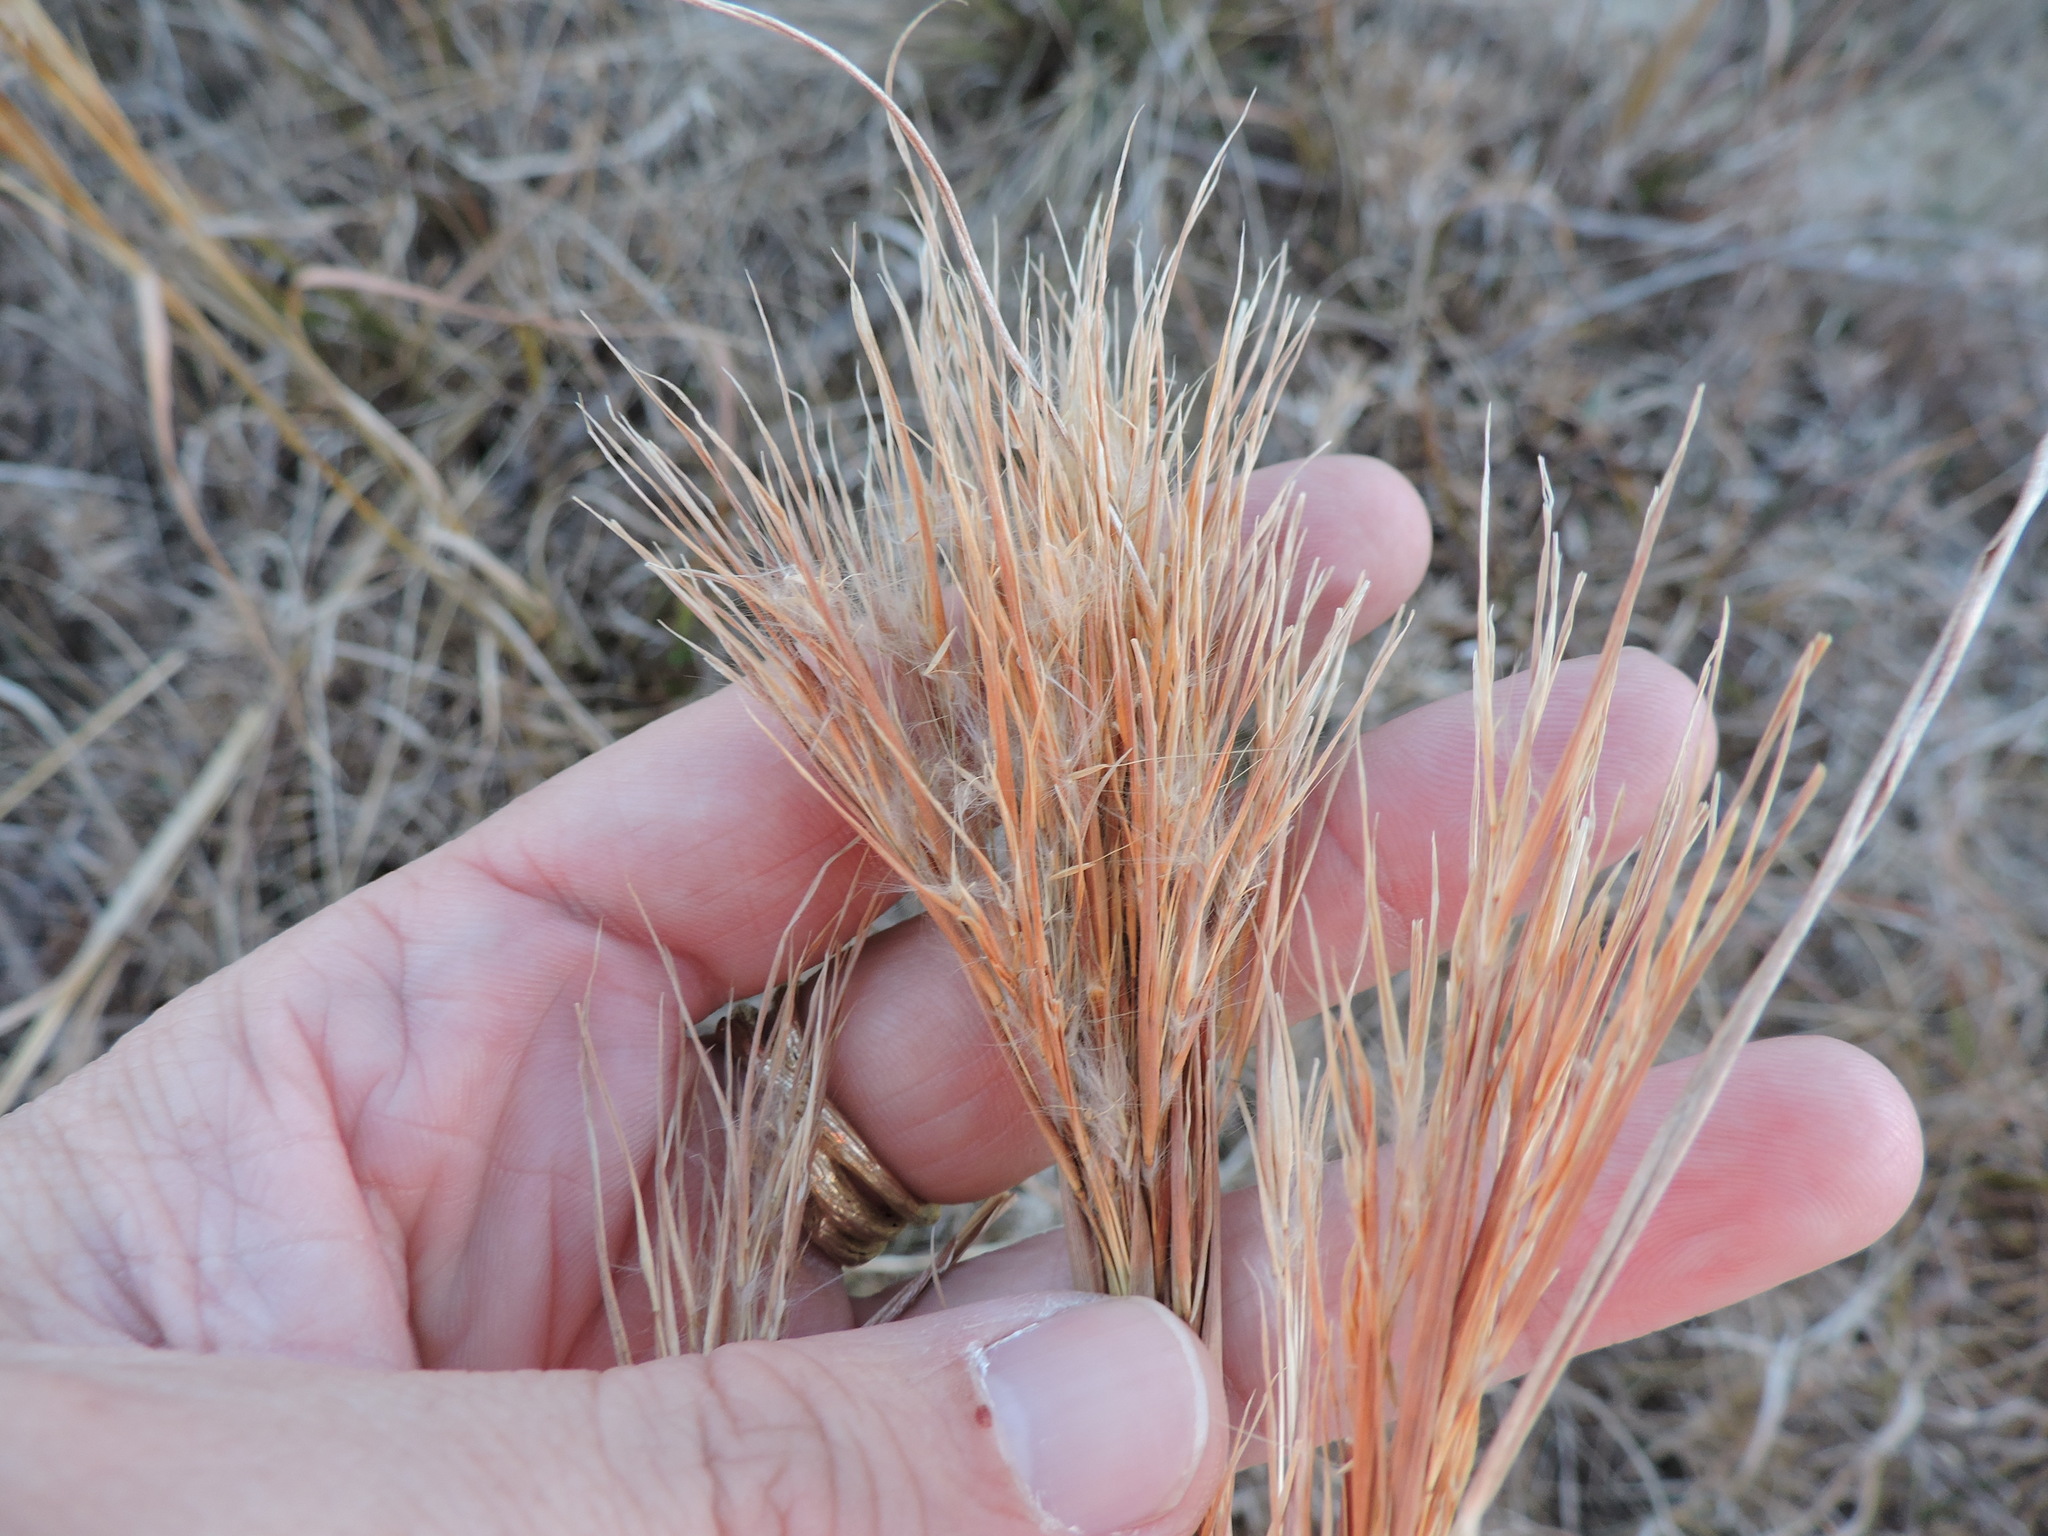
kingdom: Plantae
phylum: Tracheophyta
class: Liliopsida
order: Poales
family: Poaceae
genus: Andropogon
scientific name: Andropogon tenuispatheus
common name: Bushy bluestem
